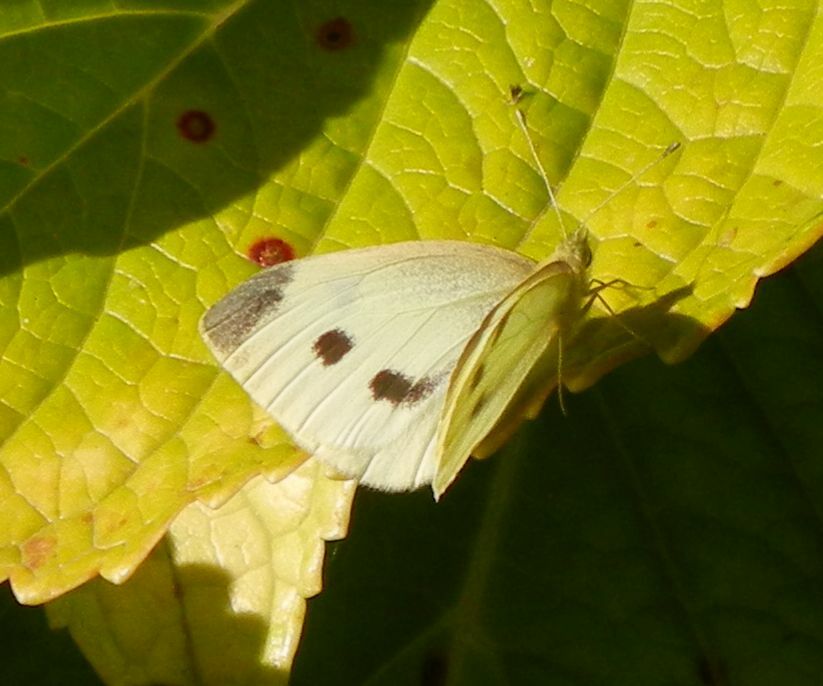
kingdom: Animalia
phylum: Arthropoda
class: Insecta
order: Lepidoptera
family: Pieridae
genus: Pieris
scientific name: Pieris rapae
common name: Small white
